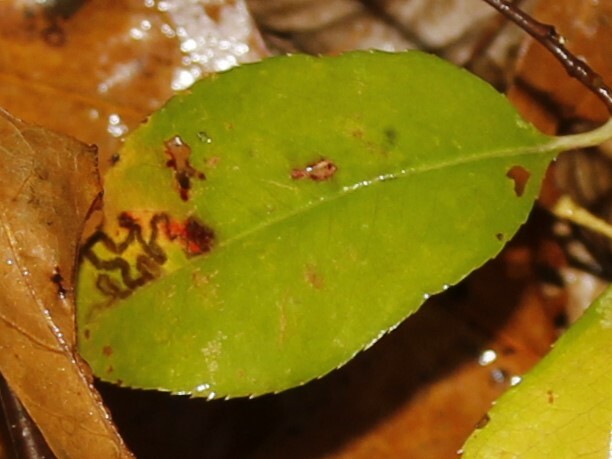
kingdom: Animalia
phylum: Arthropoda
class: Insecta
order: Lepidoptera
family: Nepticulidae
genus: Stigmella
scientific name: Stigmella prunifoliella
